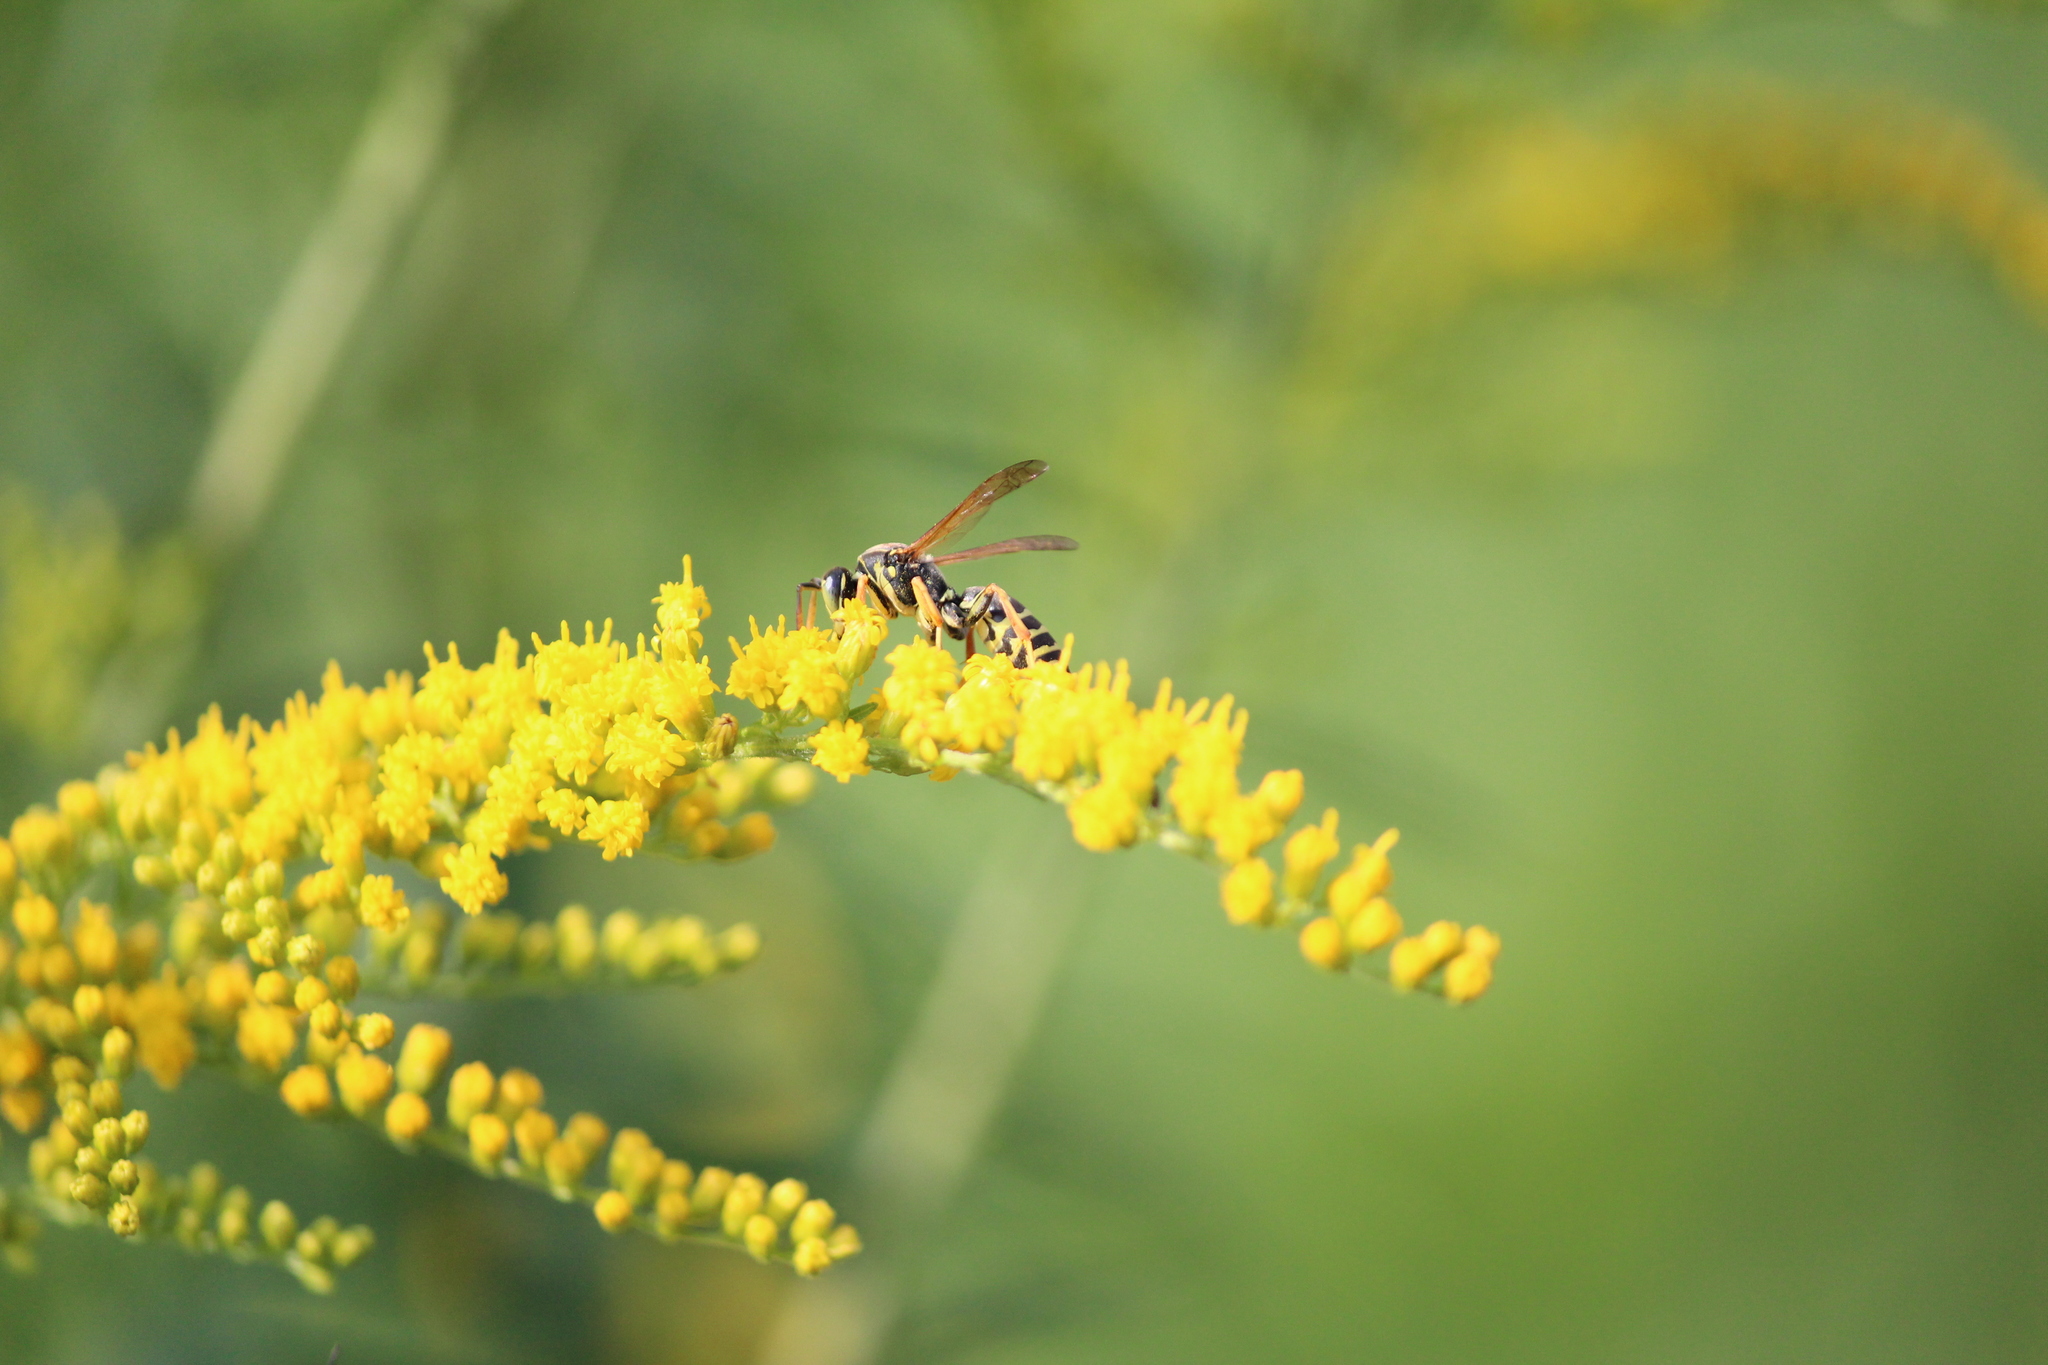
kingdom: Animalia
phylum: Arthropoda
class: Insecta
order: Hymenoptera
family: Eumenidae
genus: Polistes
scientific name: Polistes
